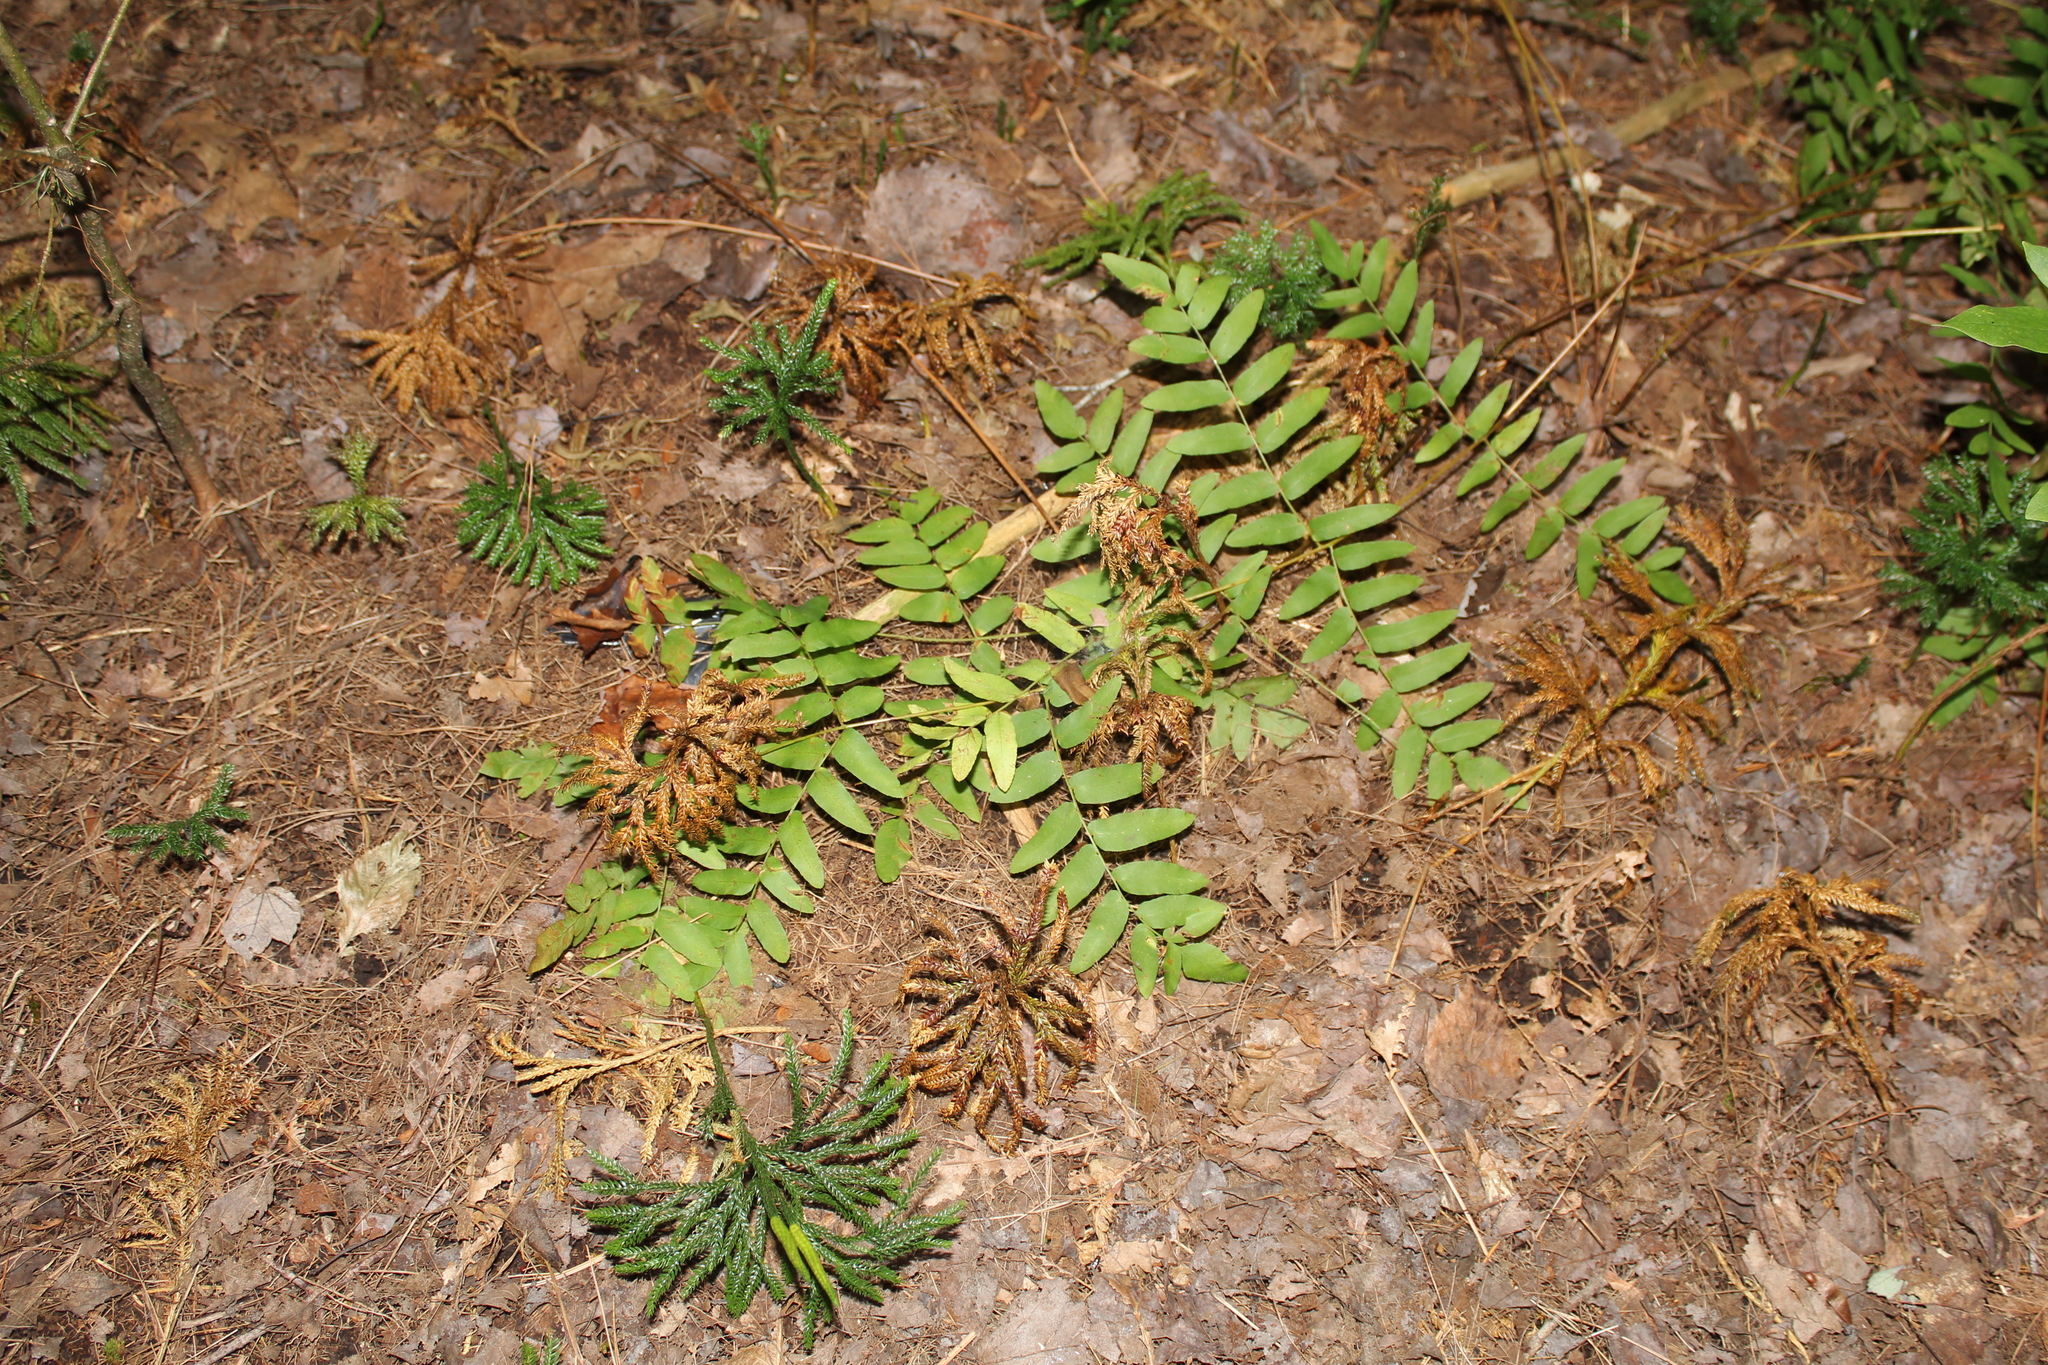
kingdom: Plantae
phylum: Tracheophyta
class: Polypodiopsida
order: Osmundales
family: Osmundaceae
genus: Osmunda
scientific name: Osmunda spectabilis
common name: American royal fern
